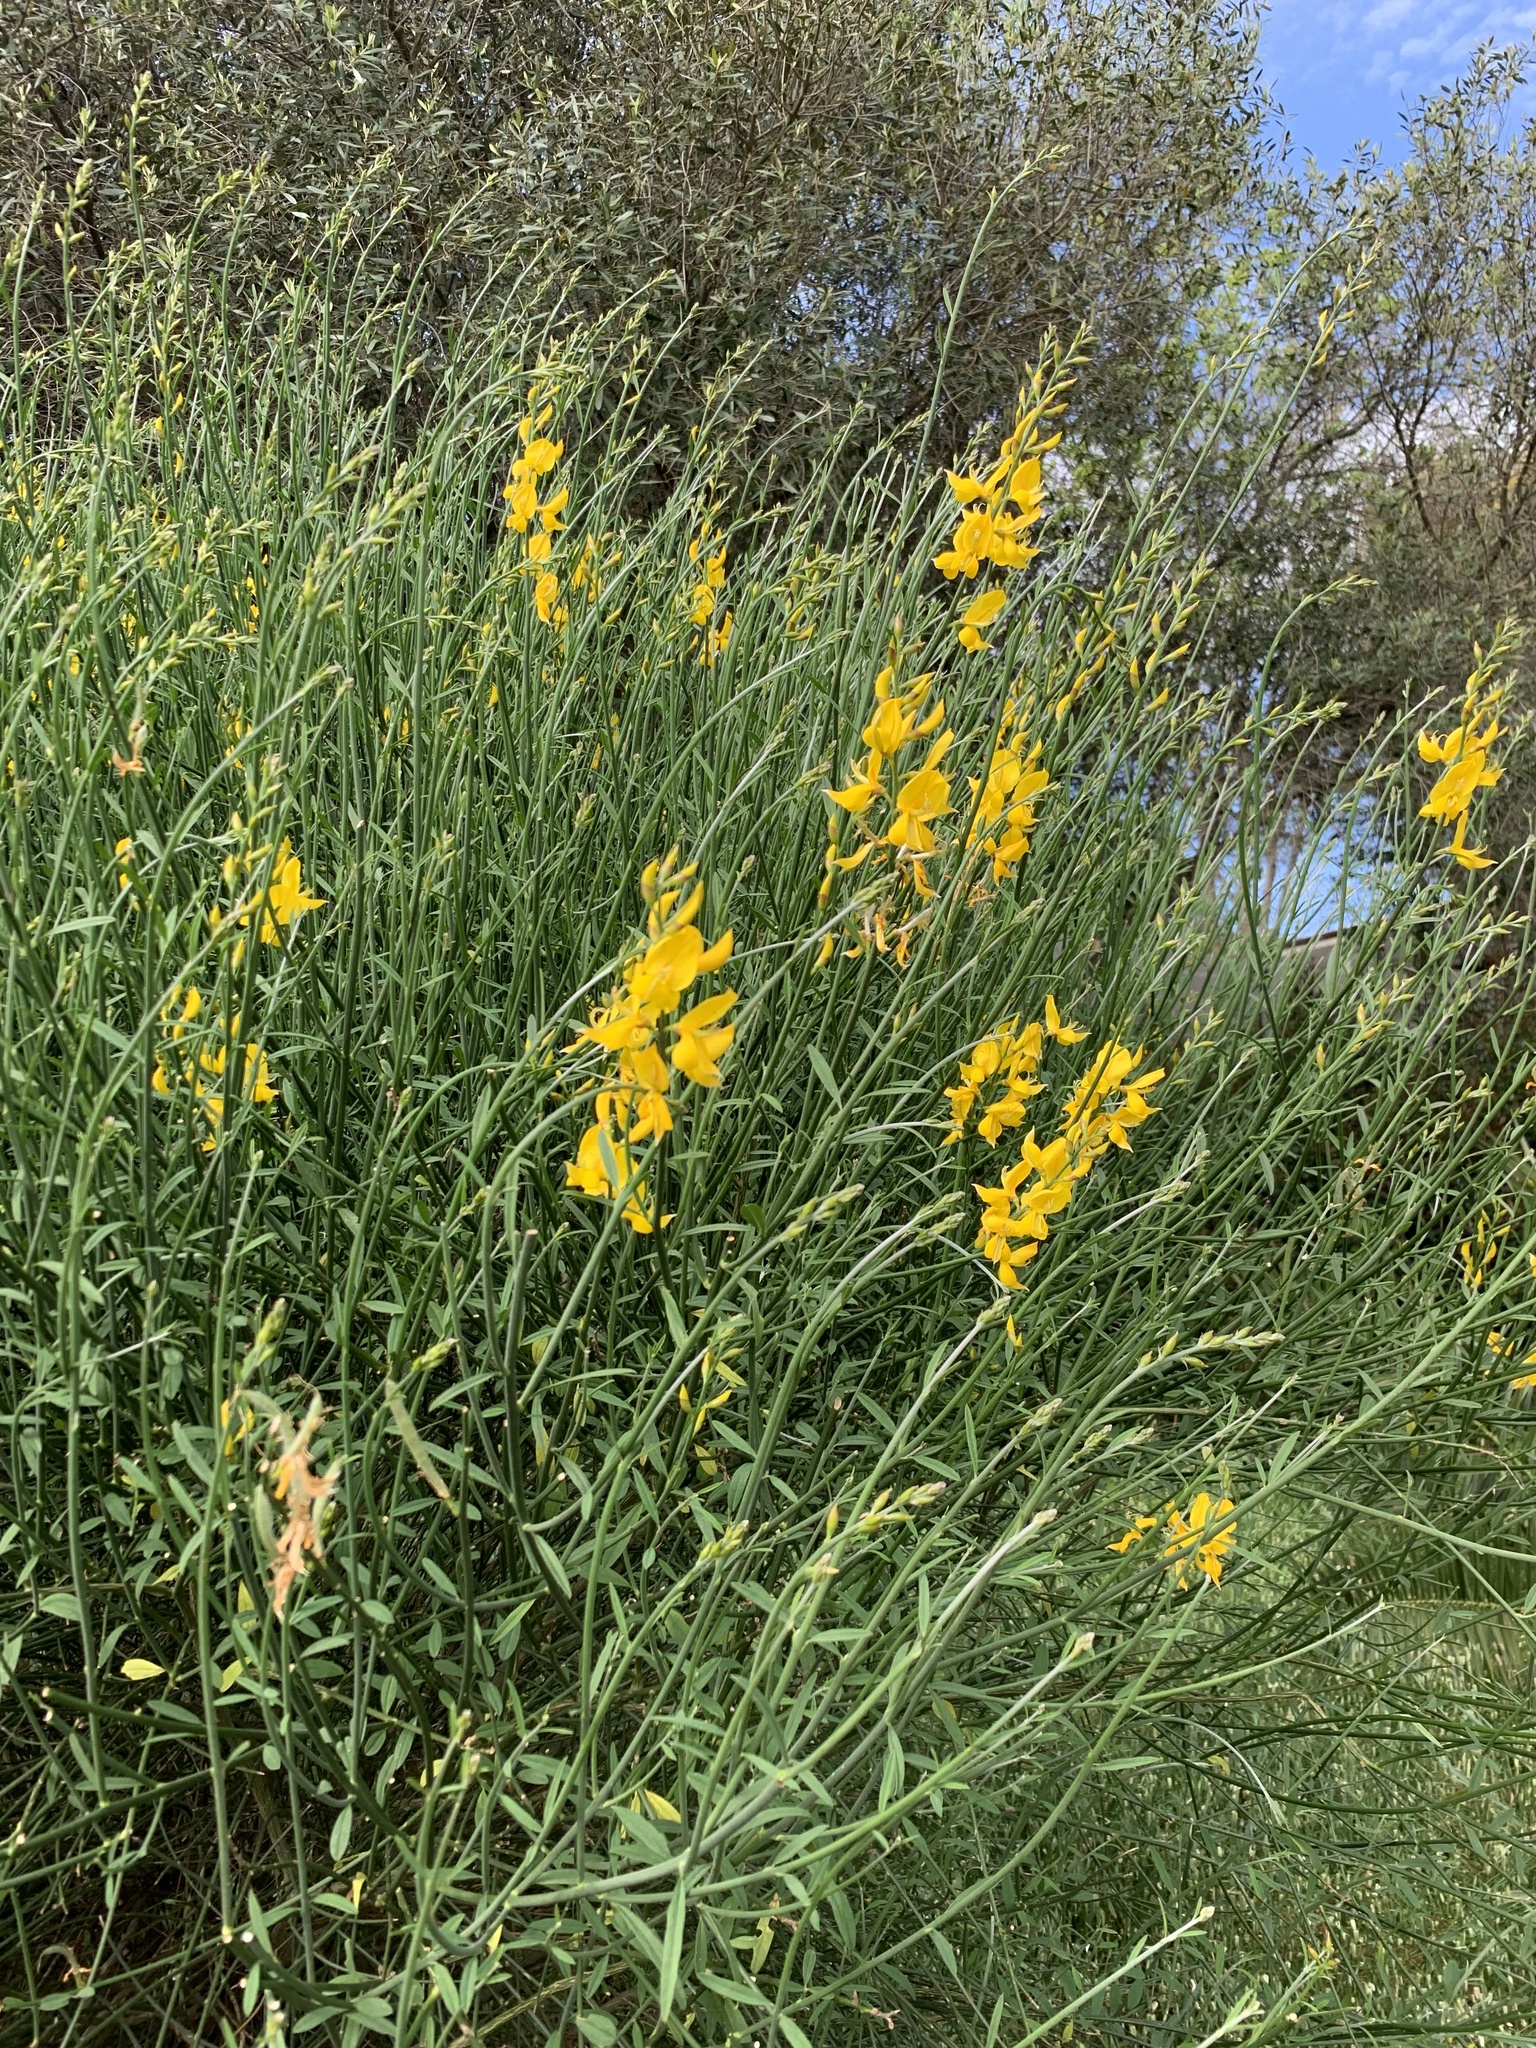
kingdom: Plantae
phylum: Tracheophyta
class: Magnoliopsida
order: Fabales
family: Fabaceae
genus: Spartium
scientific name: Spartium junceum
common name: Spanish broom
